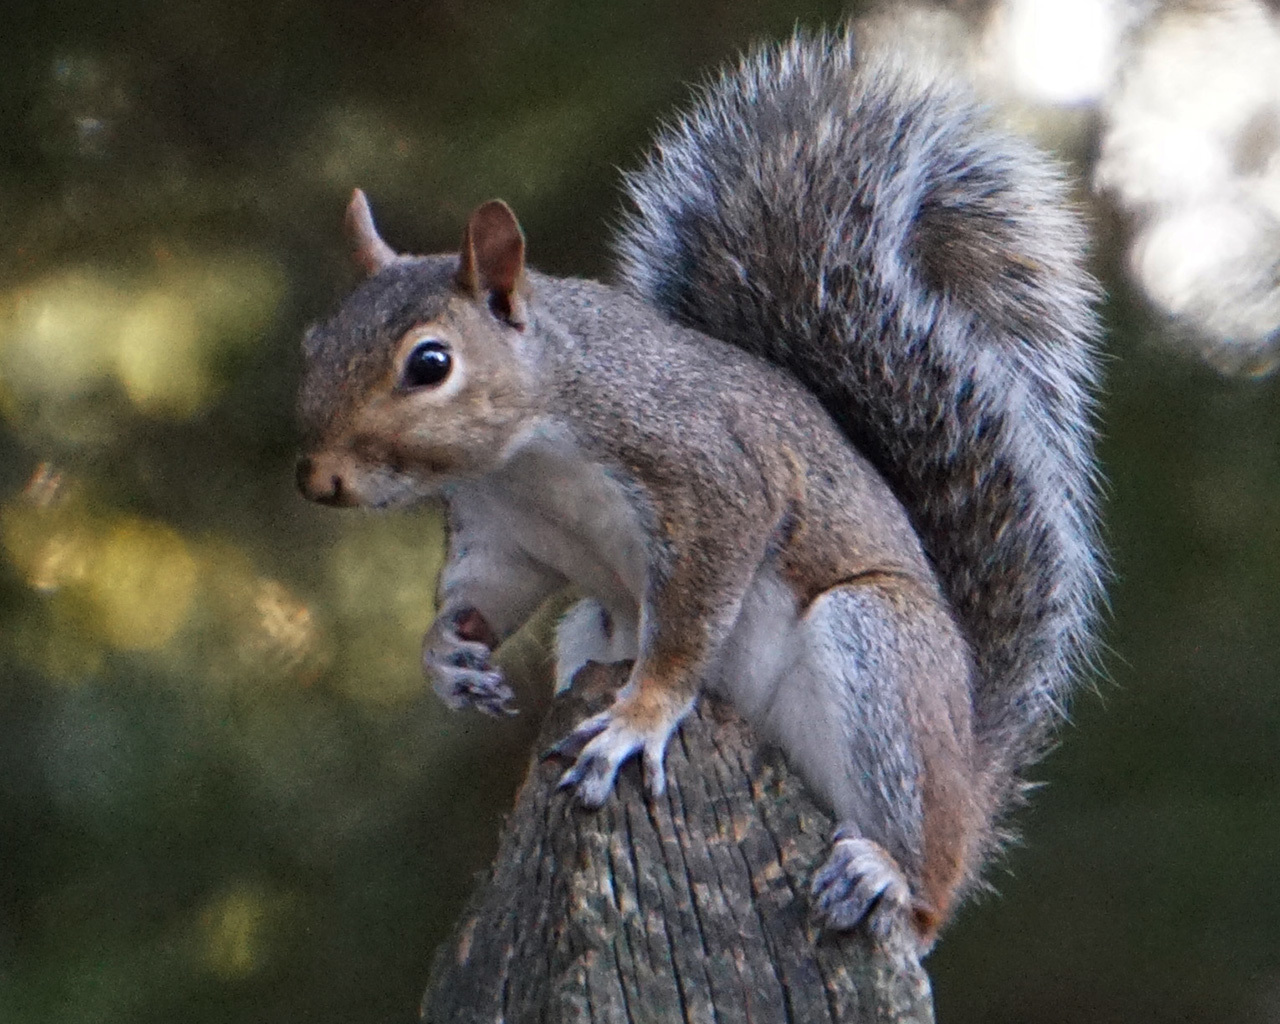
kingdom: Animalia
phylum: Chordata
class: Mammalia
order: Rodentia
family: Sciuridae
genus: Sciurus
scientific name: Sciurus carolinensis
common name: Eastern gray squirrel
